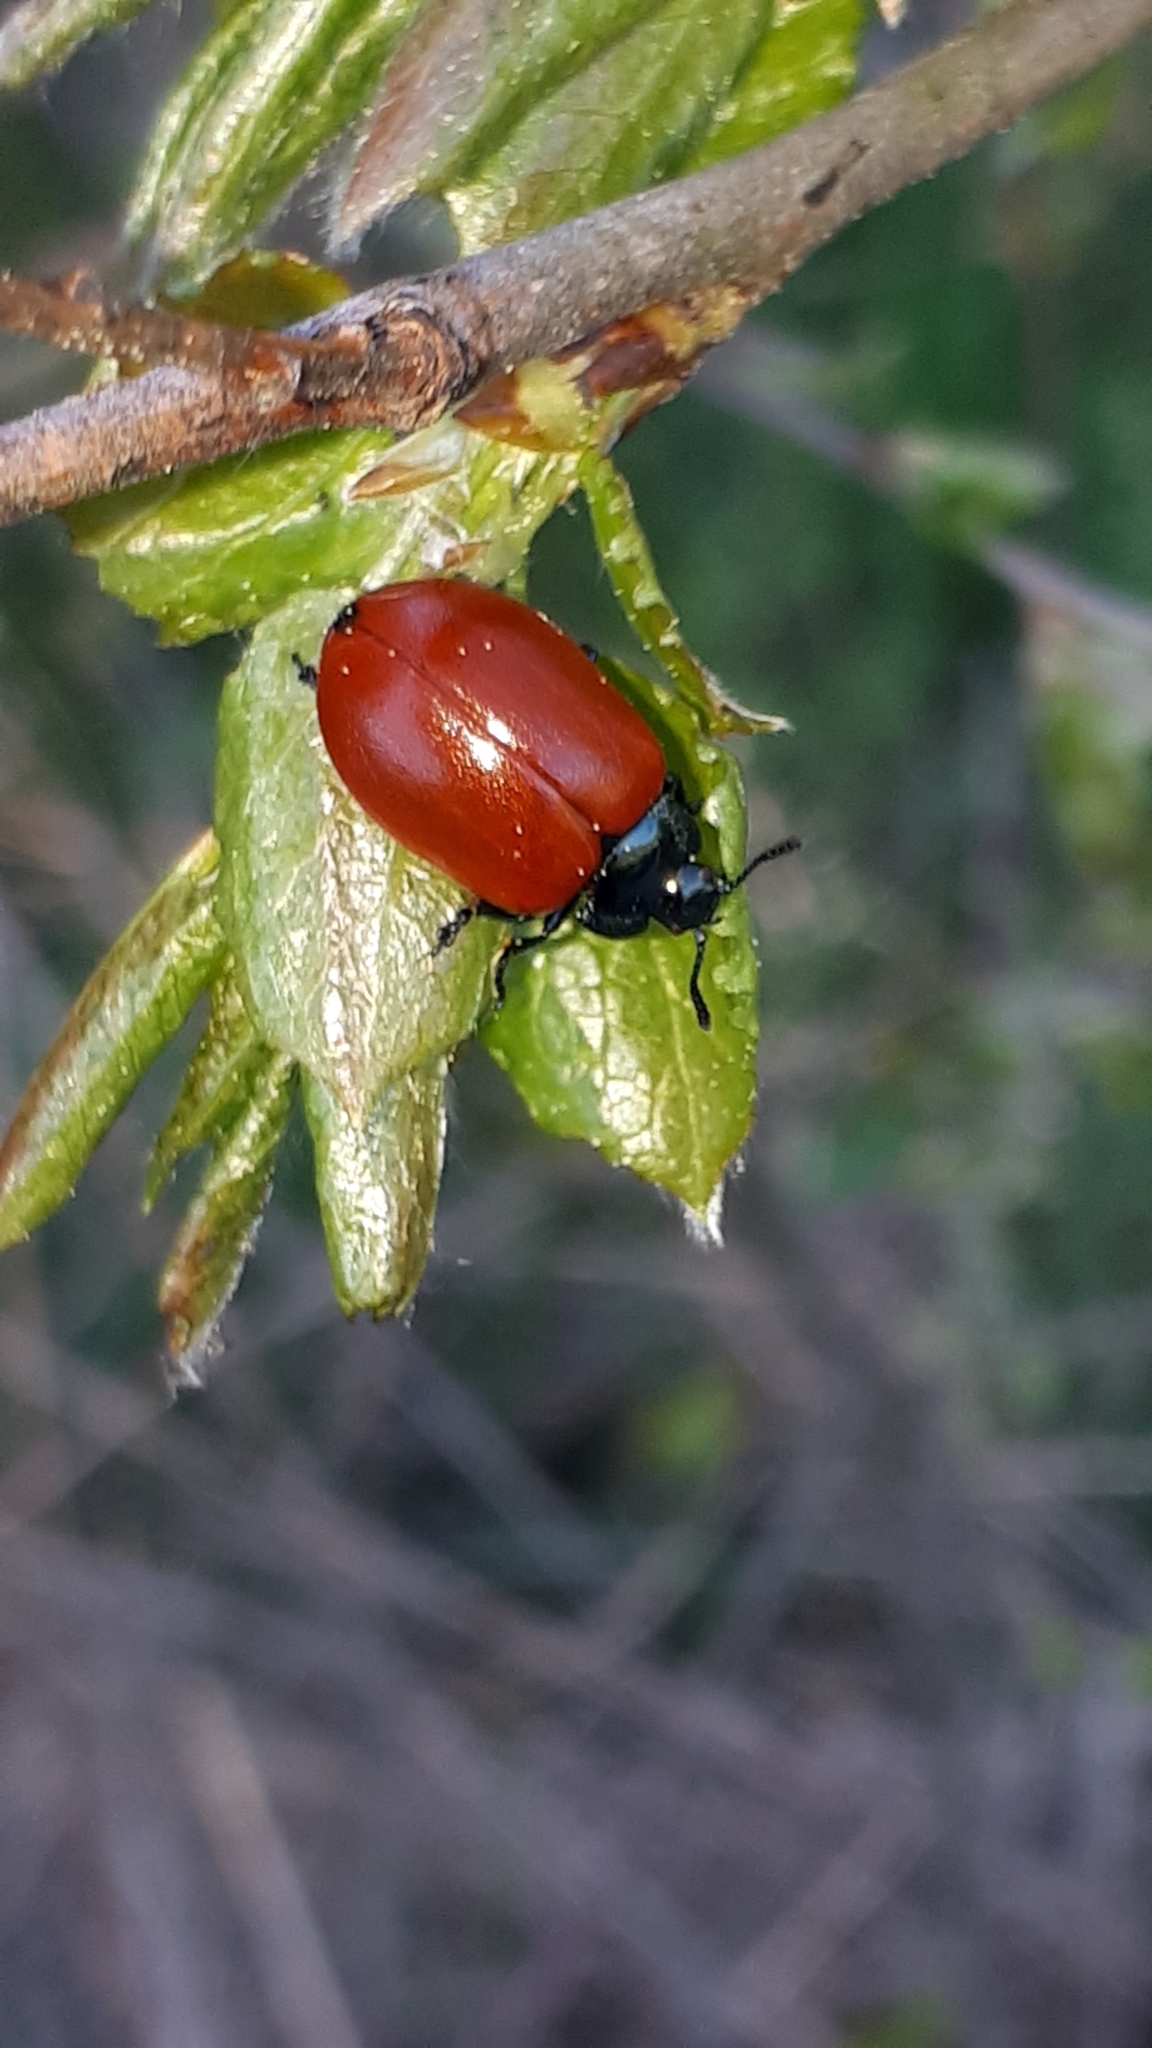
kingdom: Animalia
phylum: Arthropoda
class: Insecta
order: Coleoptera
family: Chrysomelidae
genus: Chrysomela
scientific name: Chrysomela populi
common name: Red poplar leaf beetle
